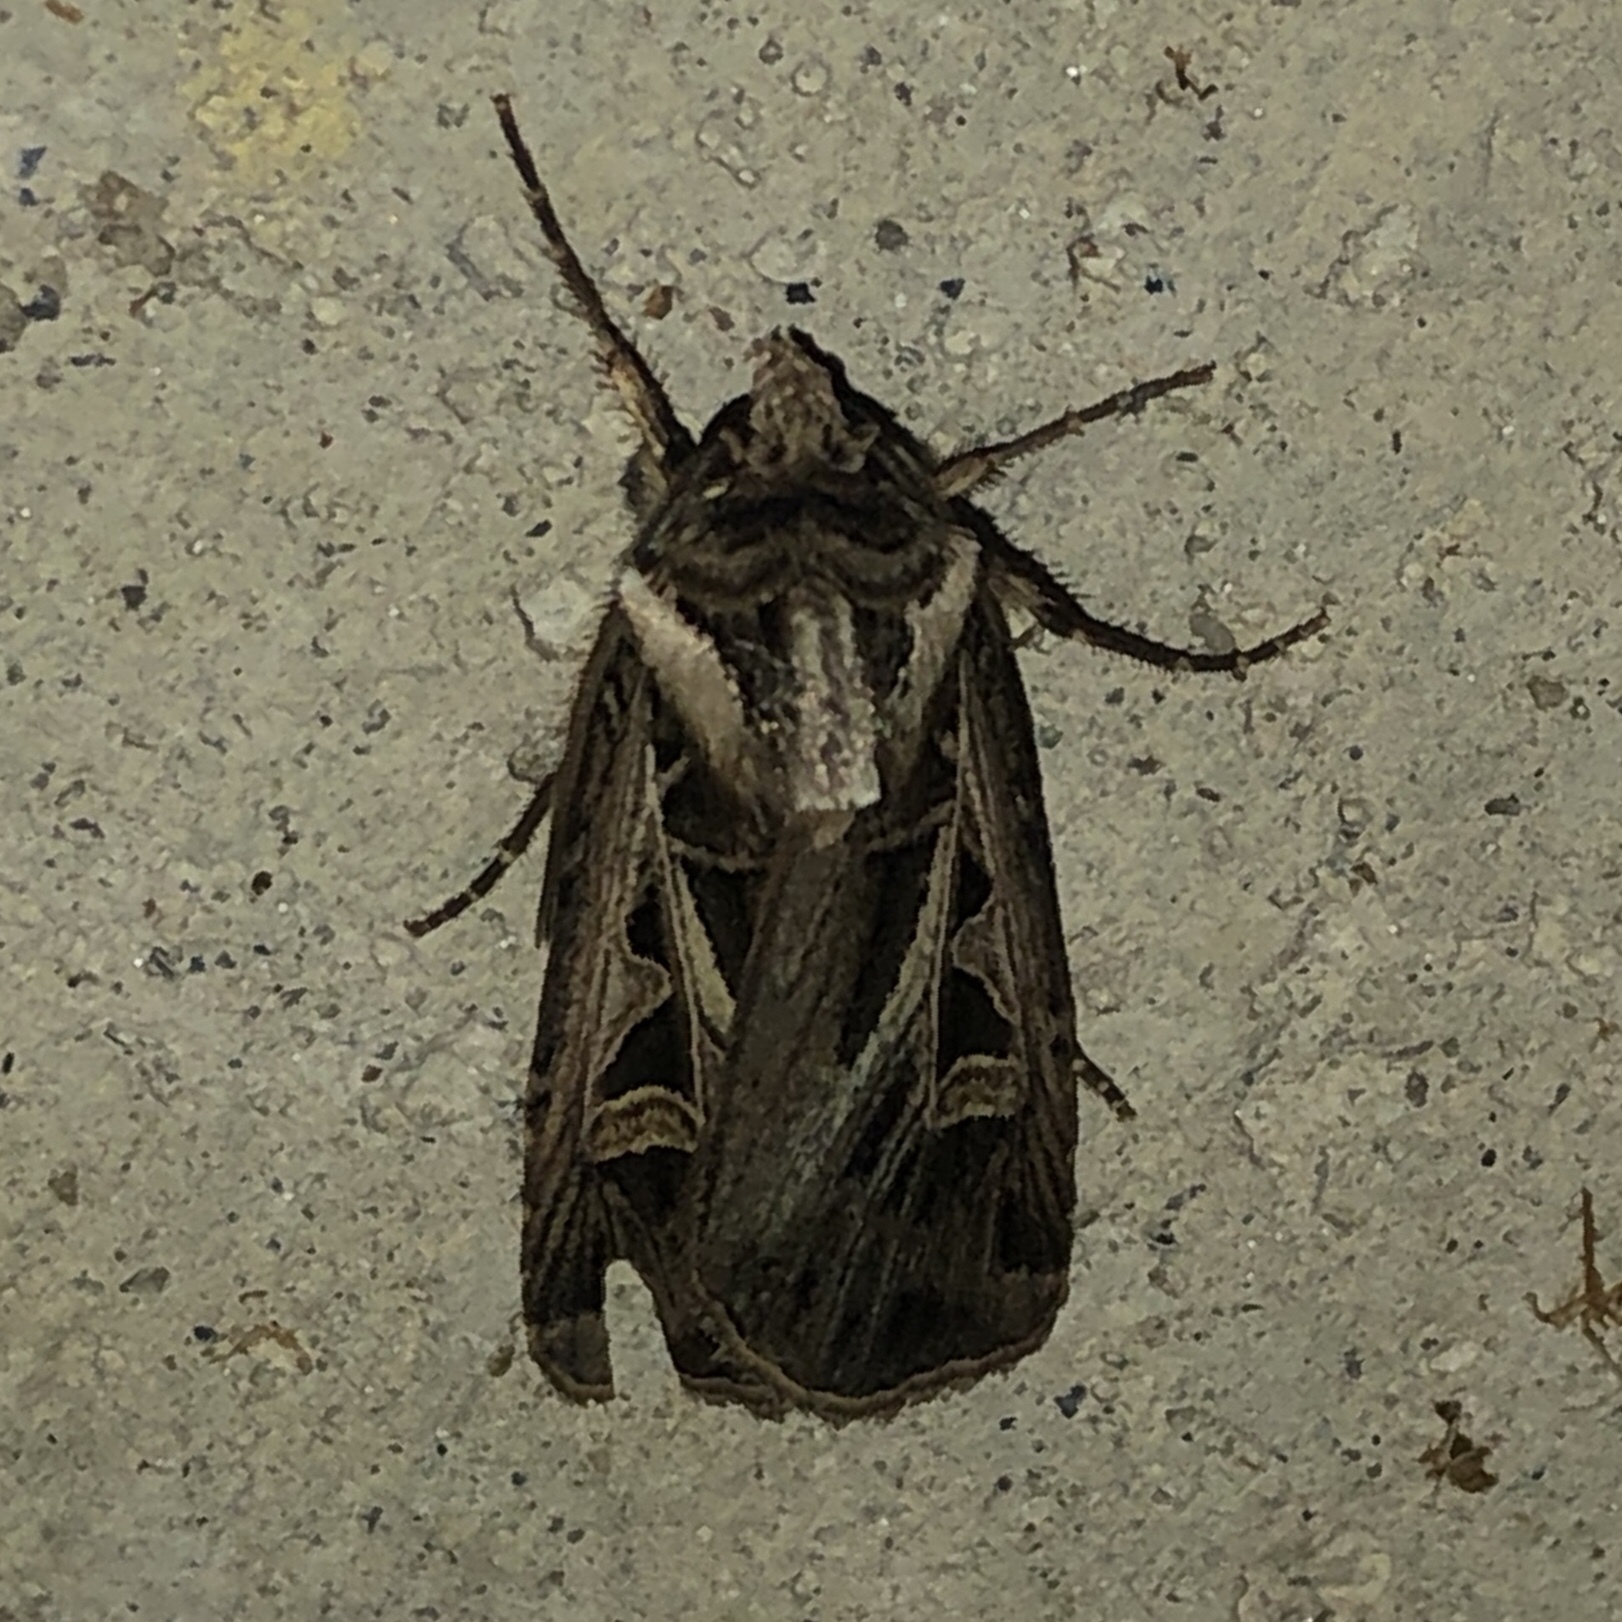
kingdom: Animalia
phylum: Arthropoda
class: Insecta
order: Lepidoptera
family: Noctuidae
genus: Feltia
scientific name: Feltia jaculifera
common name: Dingy cutworm moth
